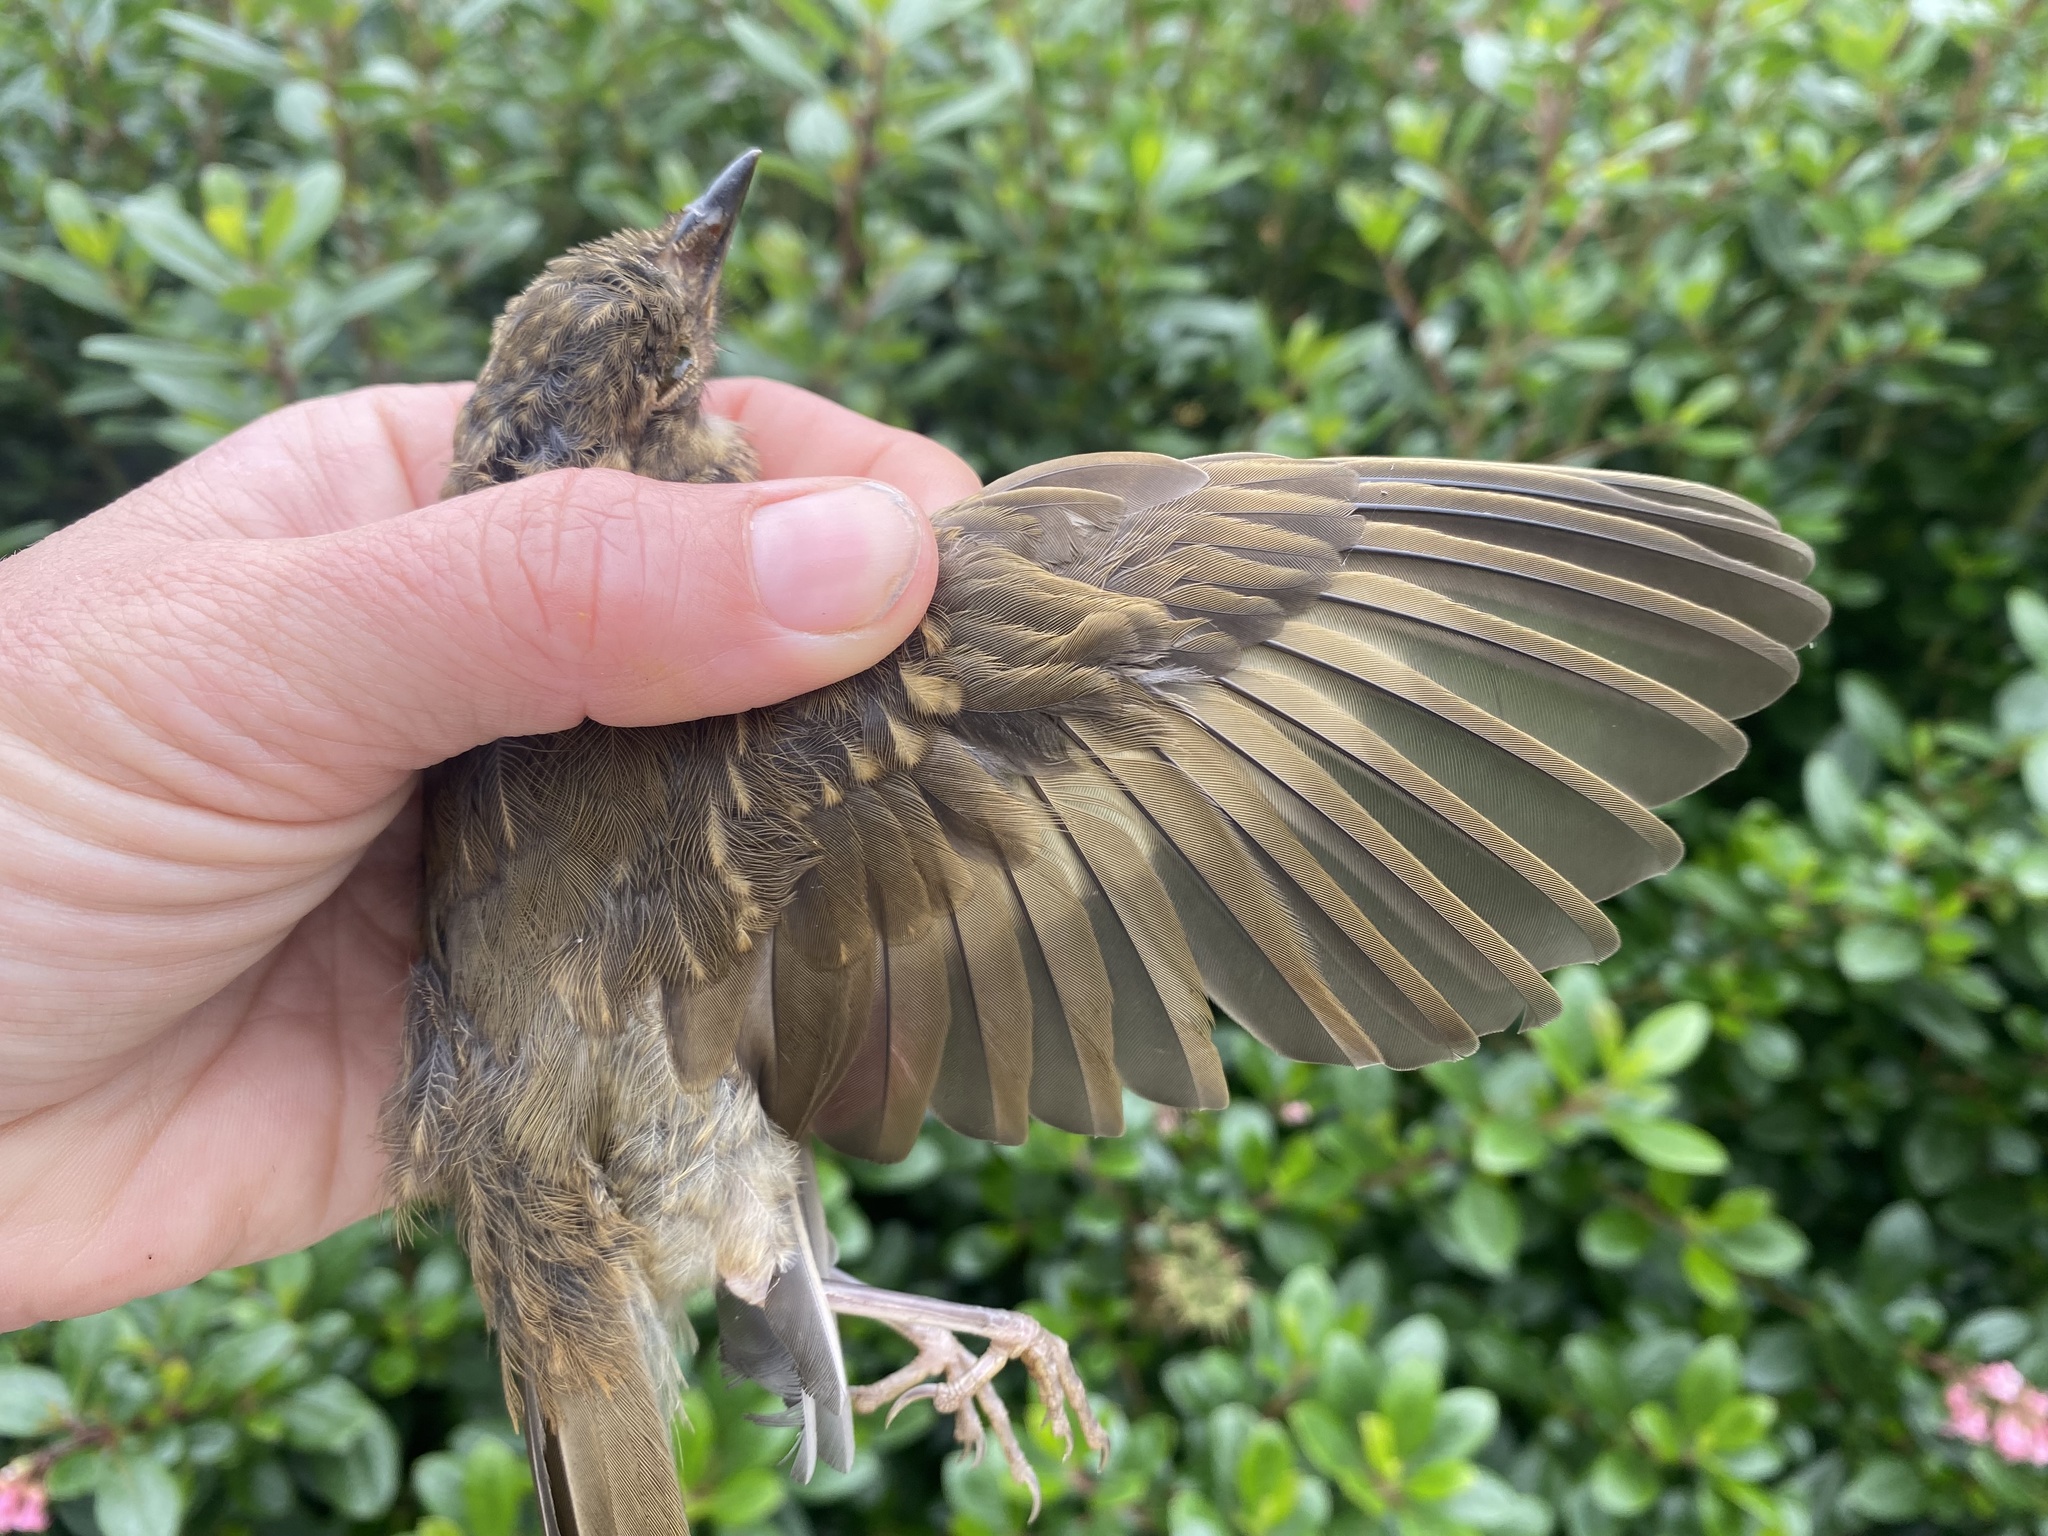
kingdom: Animalia
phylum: Chordata
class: Aves
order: Passeriformes
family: Turdidae
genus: Catharus
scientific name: Catharus ustulatus
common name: Swainson's thrush
